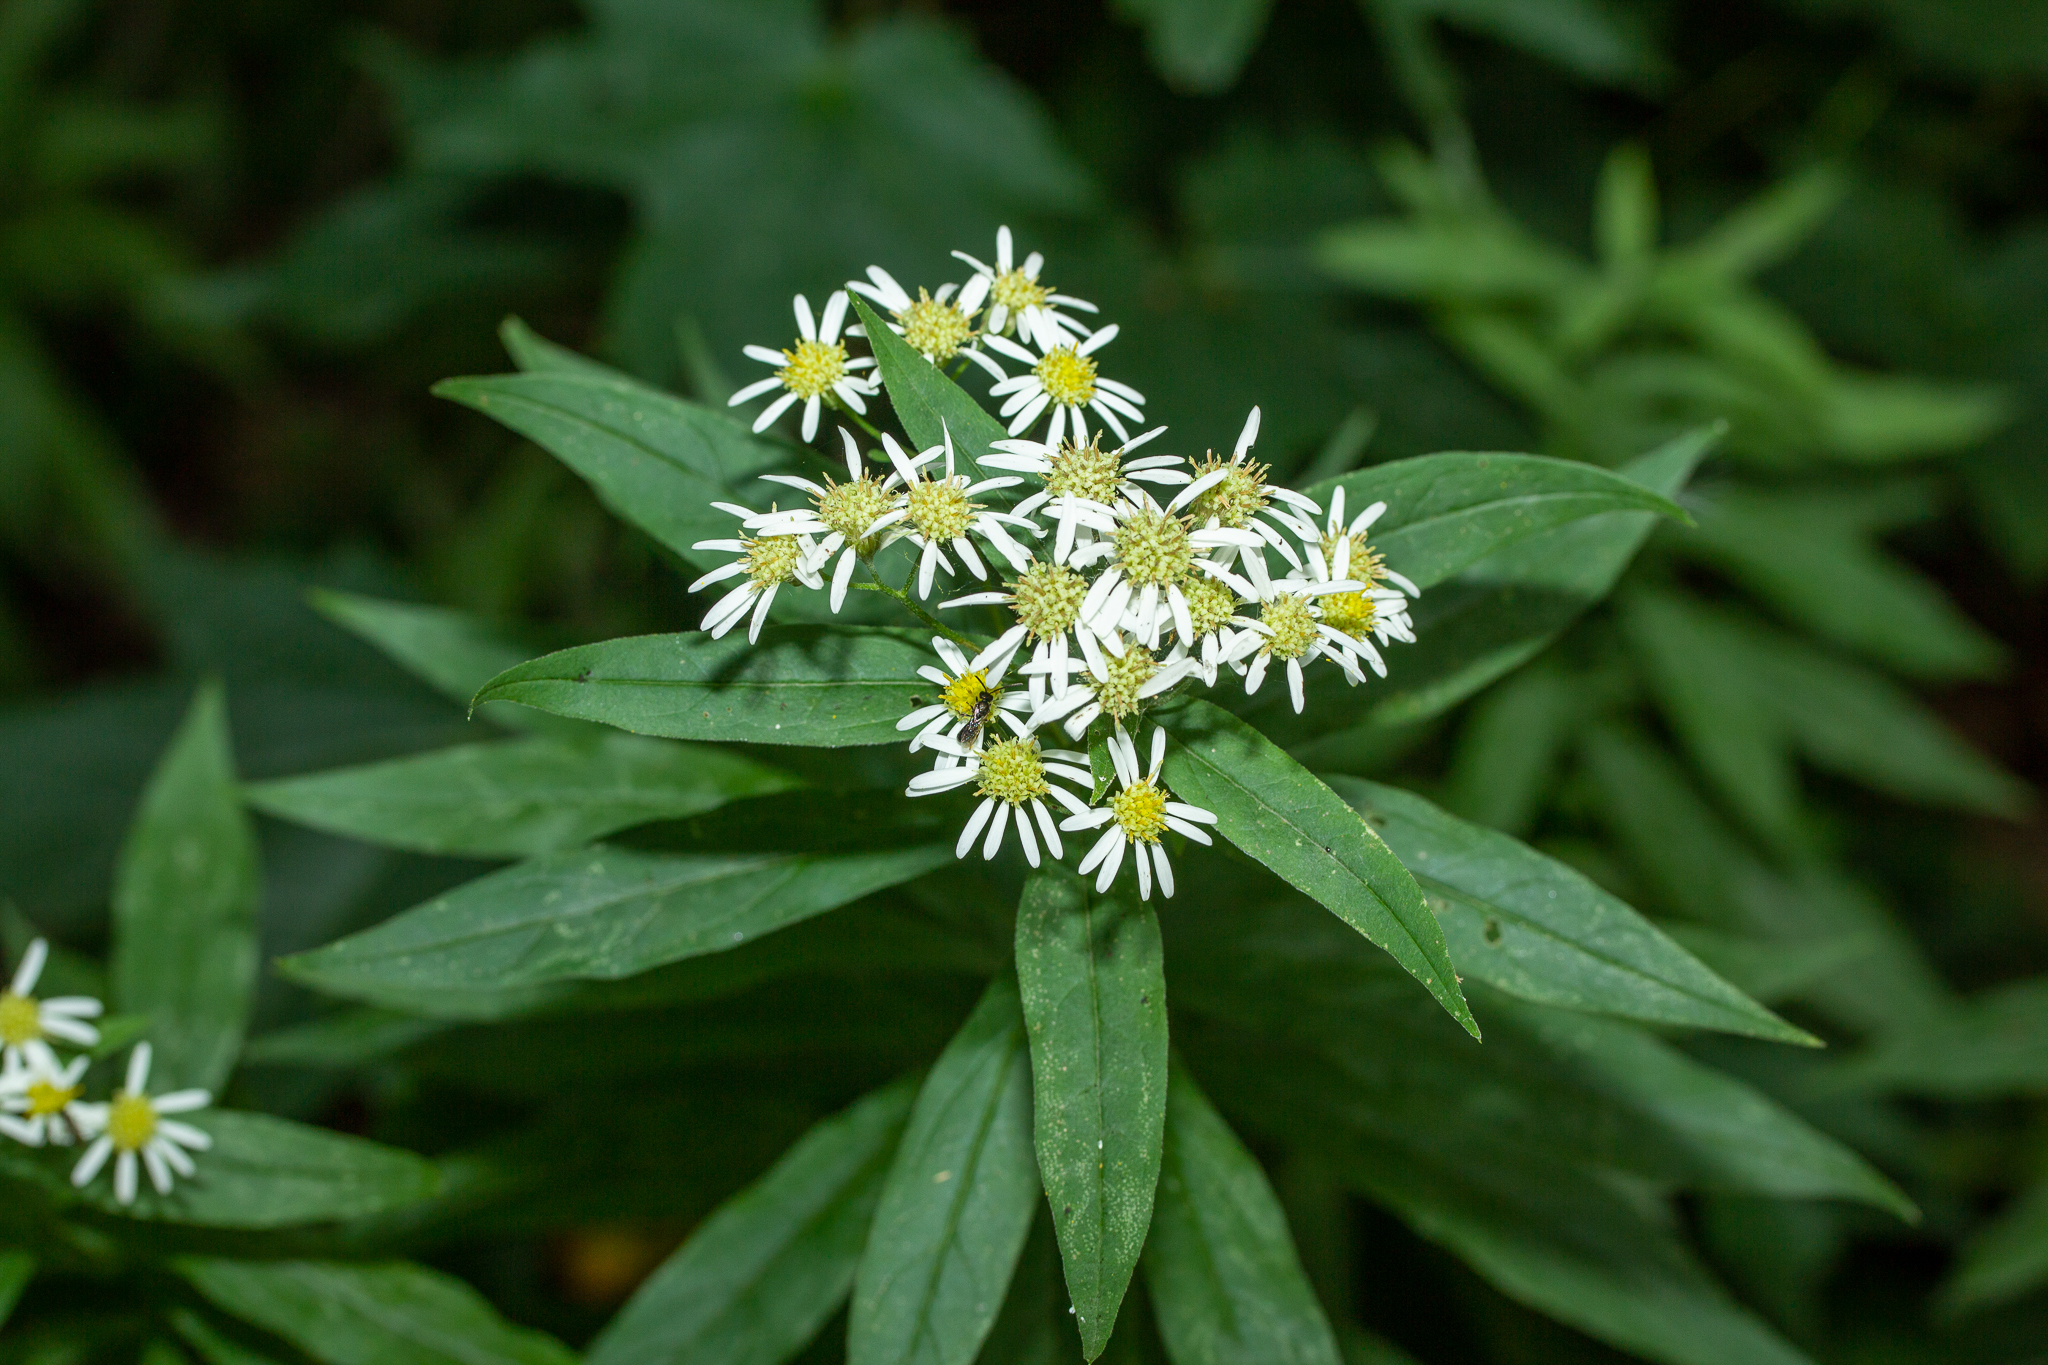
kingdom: Plantae
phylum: Tracheophyta
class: Magnoliopsida
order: Asterales
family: Asteraceae
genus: Doellingeria
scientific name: Doellingeria umbellata
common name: Flat-top white aster
